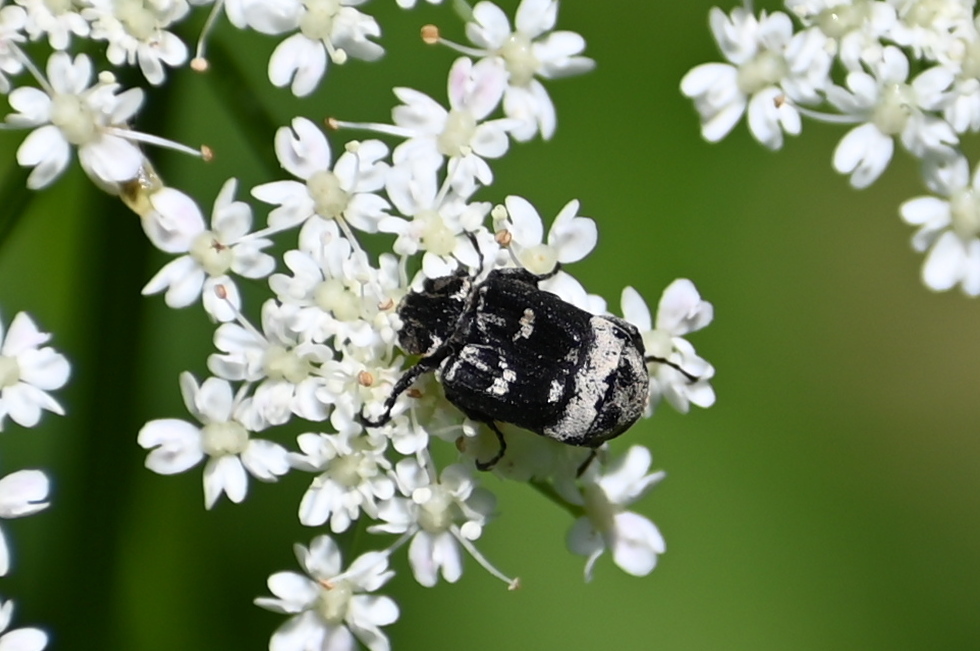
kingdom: Animalia
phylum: Arthropoda
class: Insecta
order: Coleoptera
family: Scarabaeidae
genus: Valgus
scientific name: Valgus hemipterus
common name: Bug flower chafer
